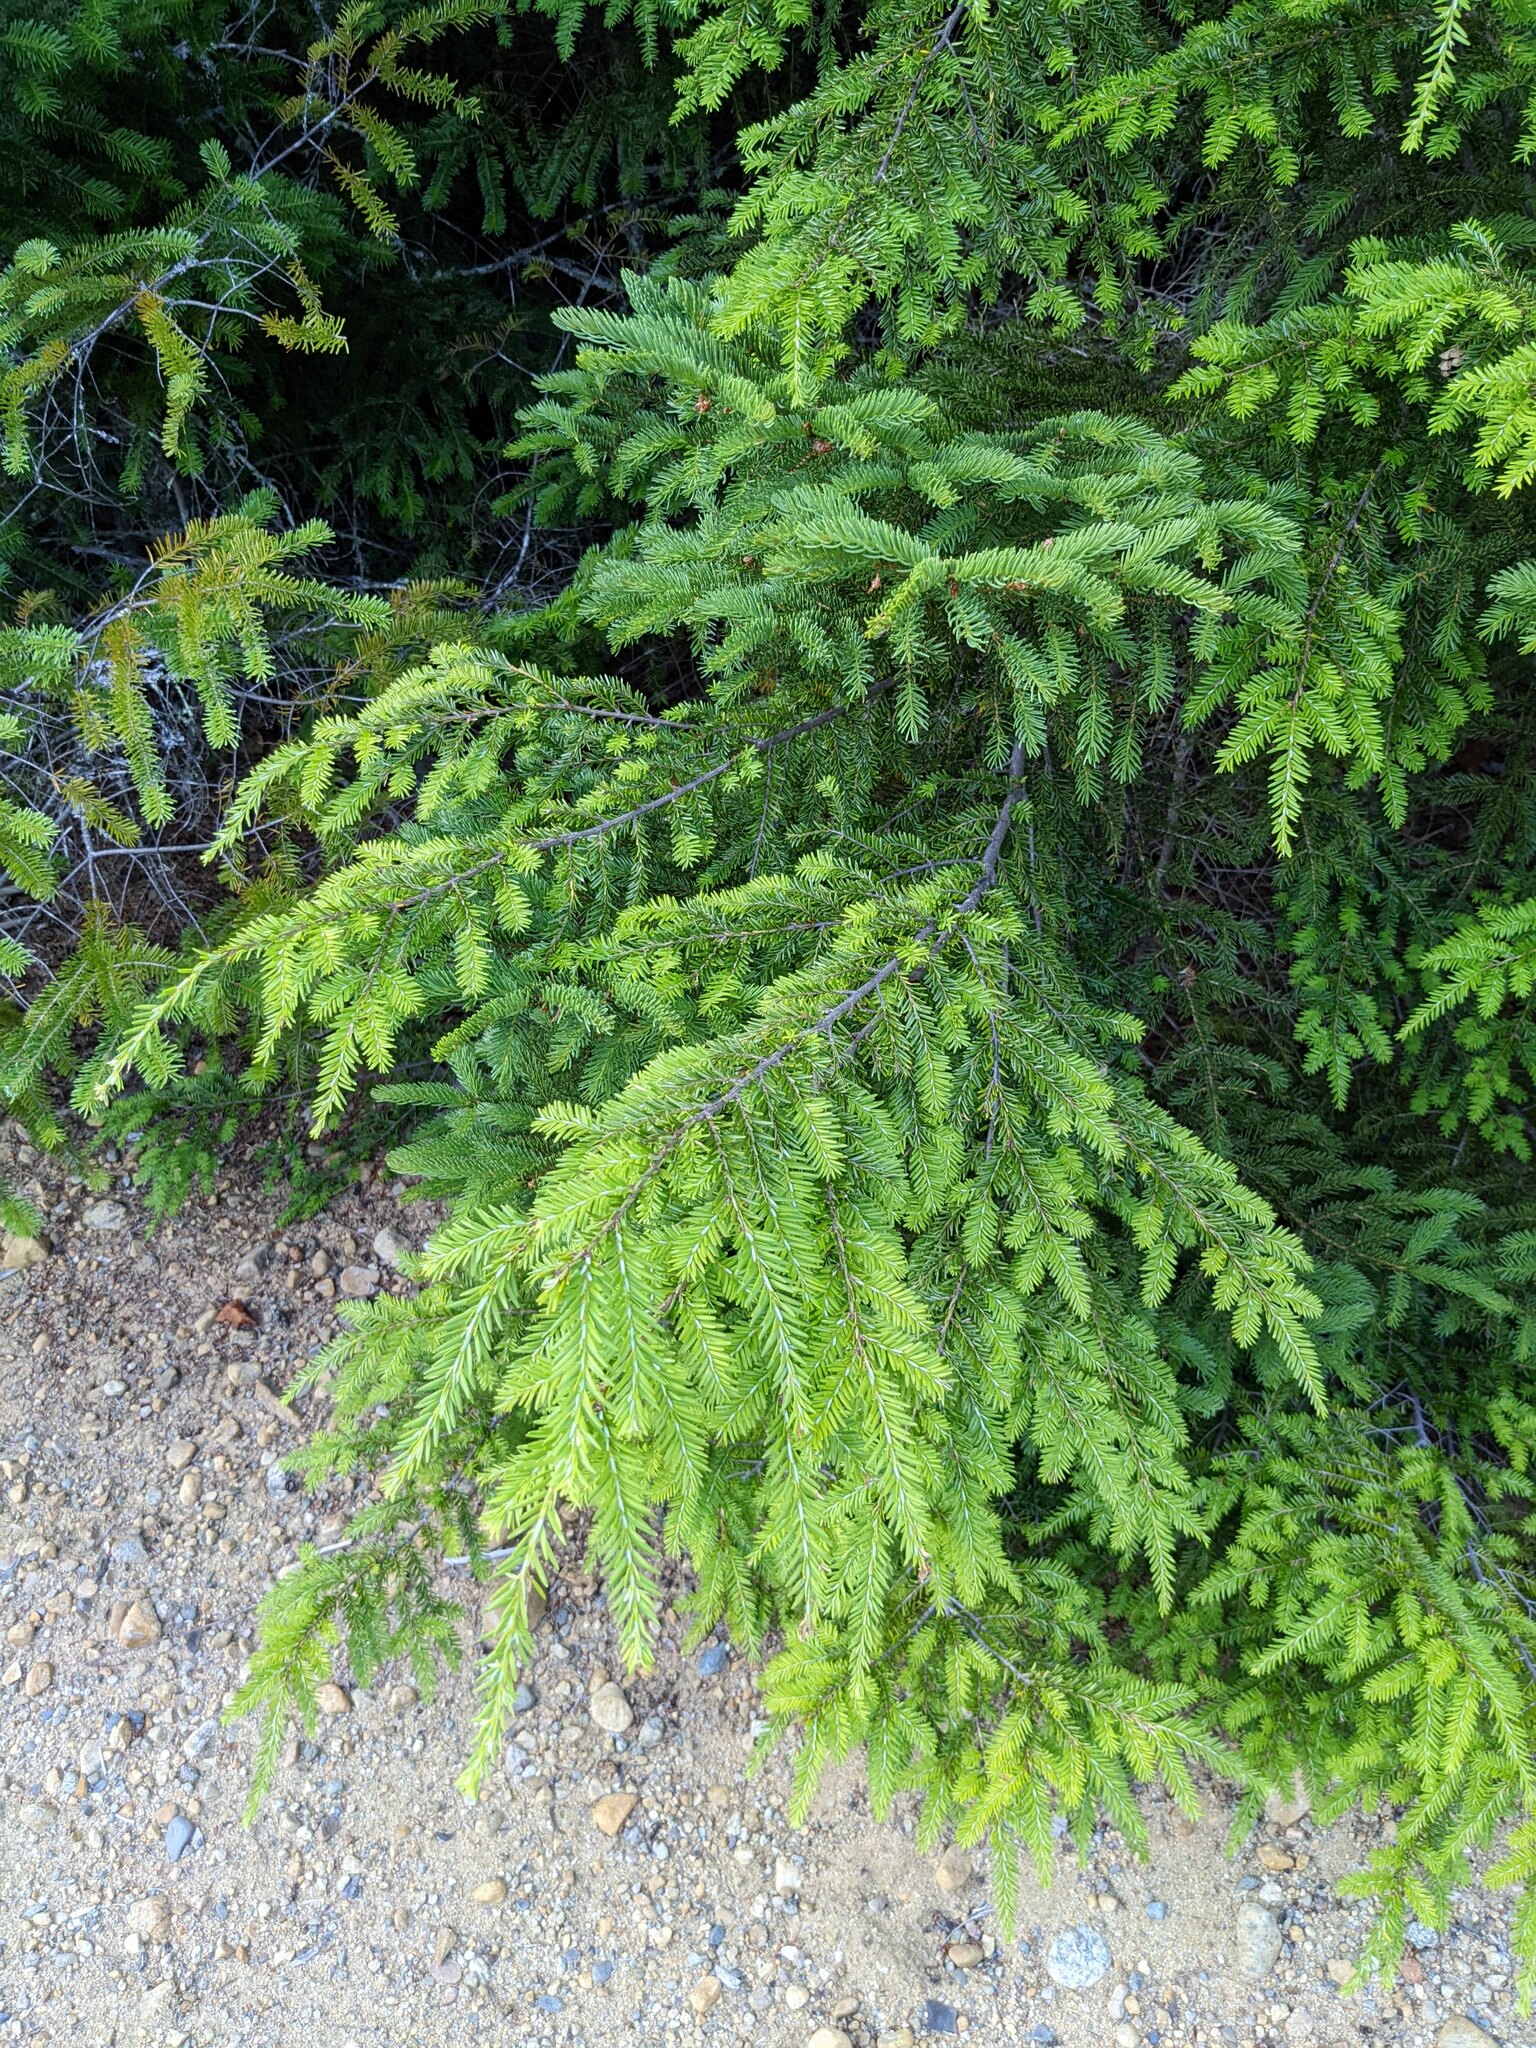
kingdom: Plantae
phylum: Tracheophyta
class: Pinopsida
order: Pinales
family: Pinaceae
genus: Tsuga
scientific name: Tsuga canadensis
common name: Eastern hemlock
